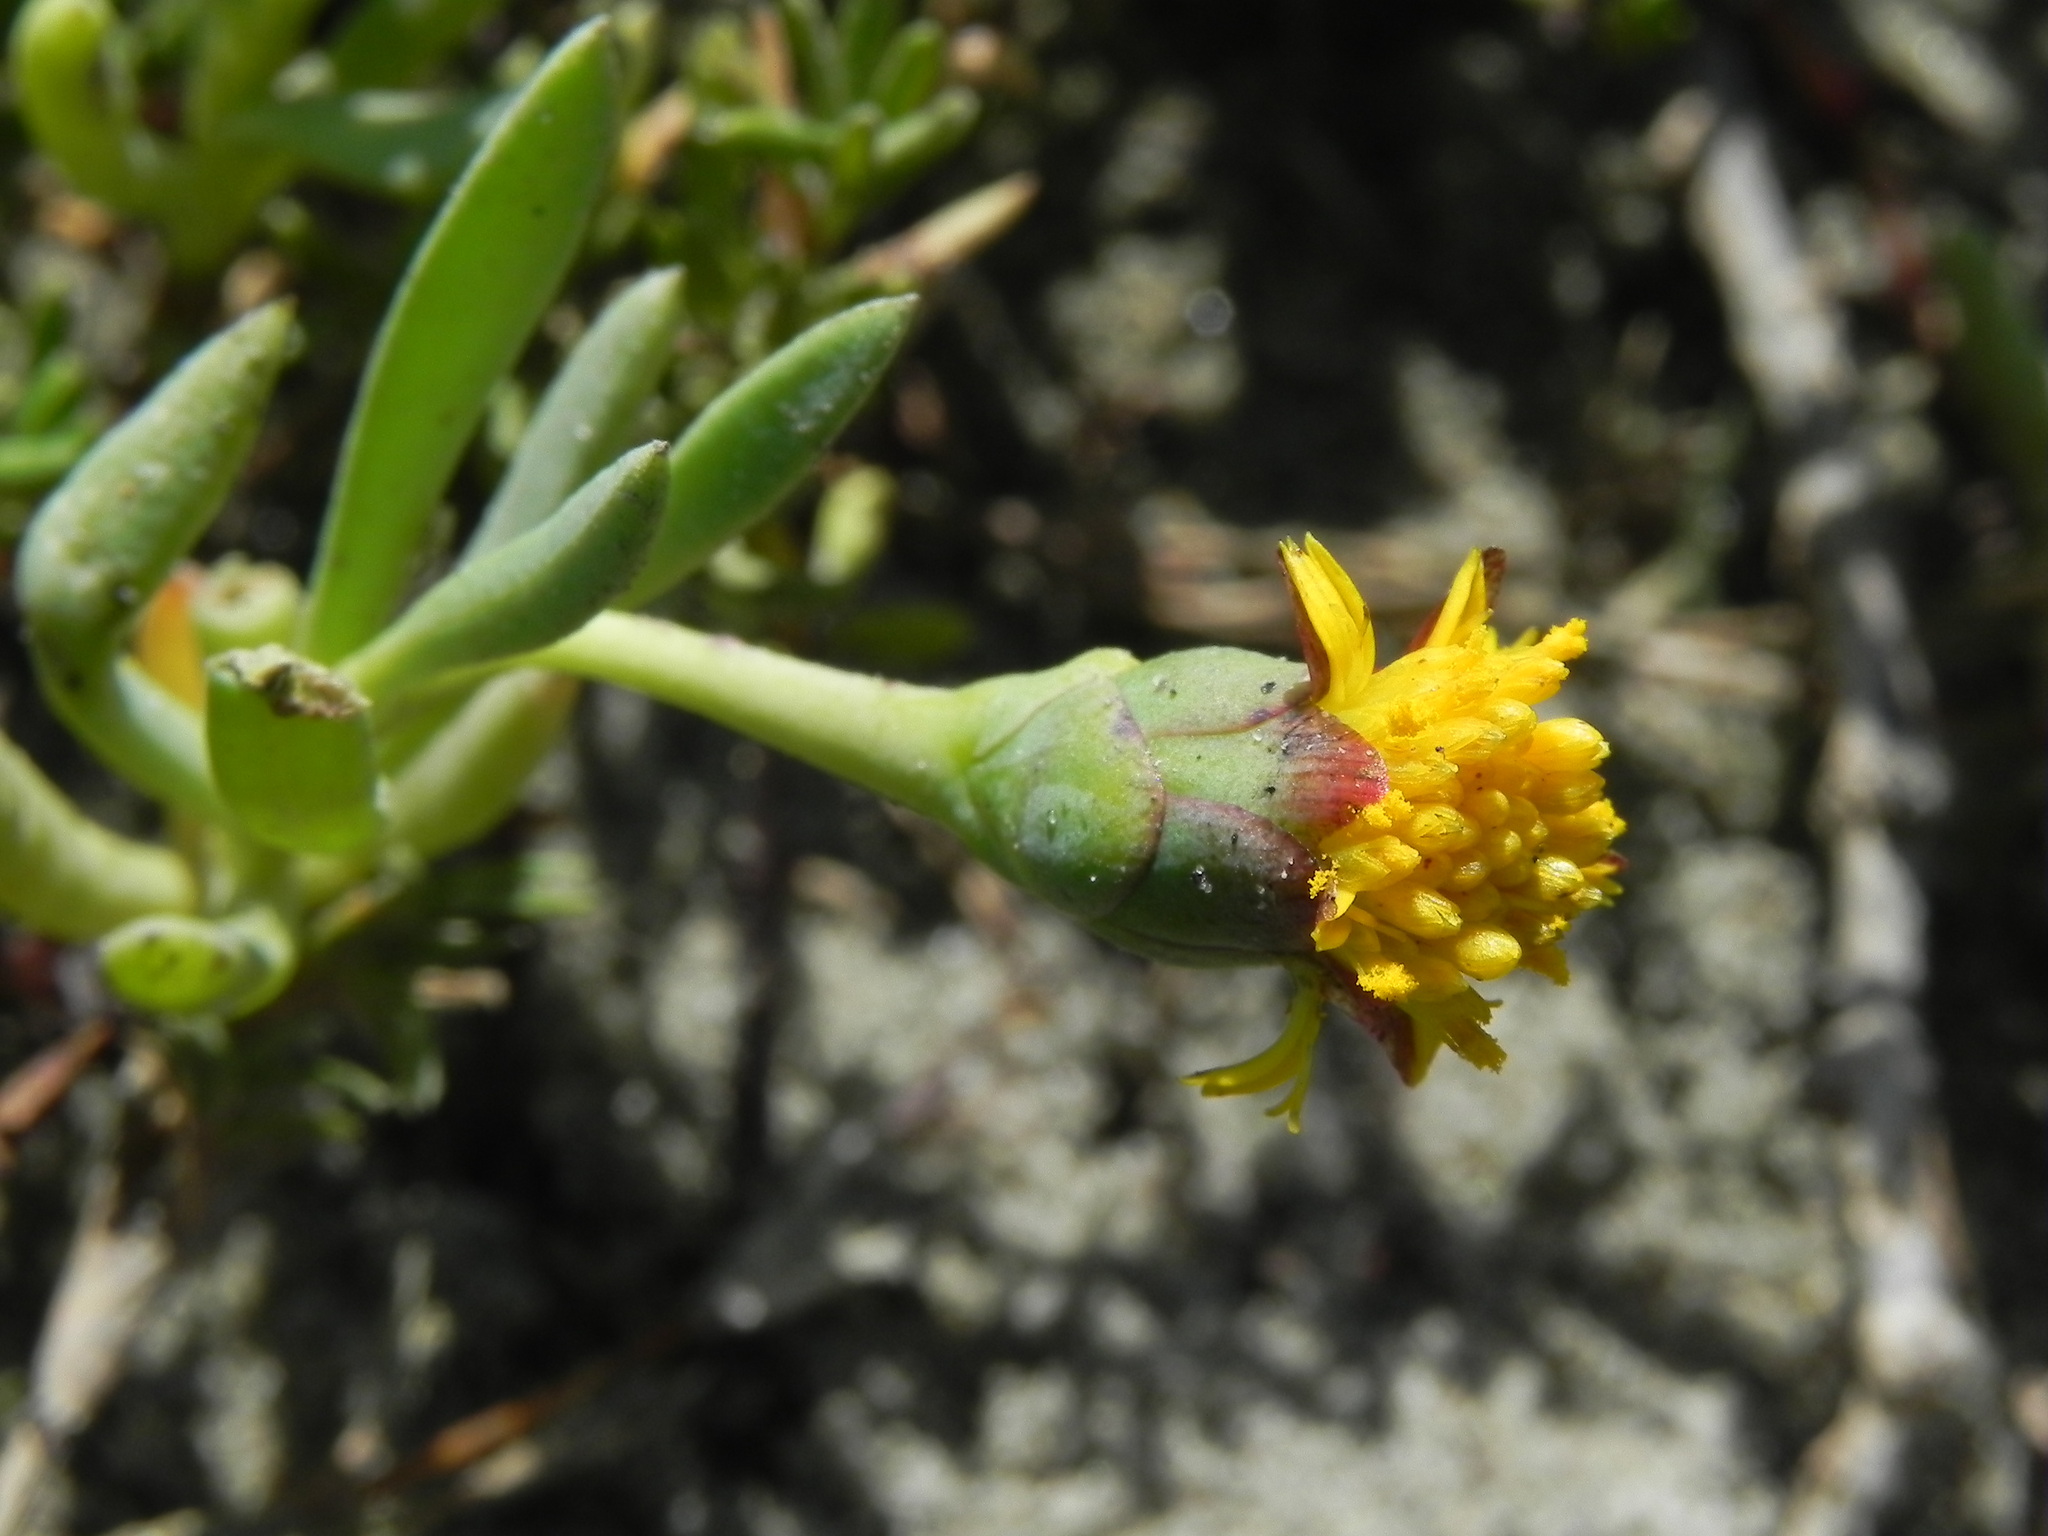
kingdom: Plantae
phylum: Tracheophyta
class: Magnoliopsida
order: Asterales
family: Asteraceae
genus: Jaumea
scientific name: Jaumea carnosa
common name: Fleshy jaumea
